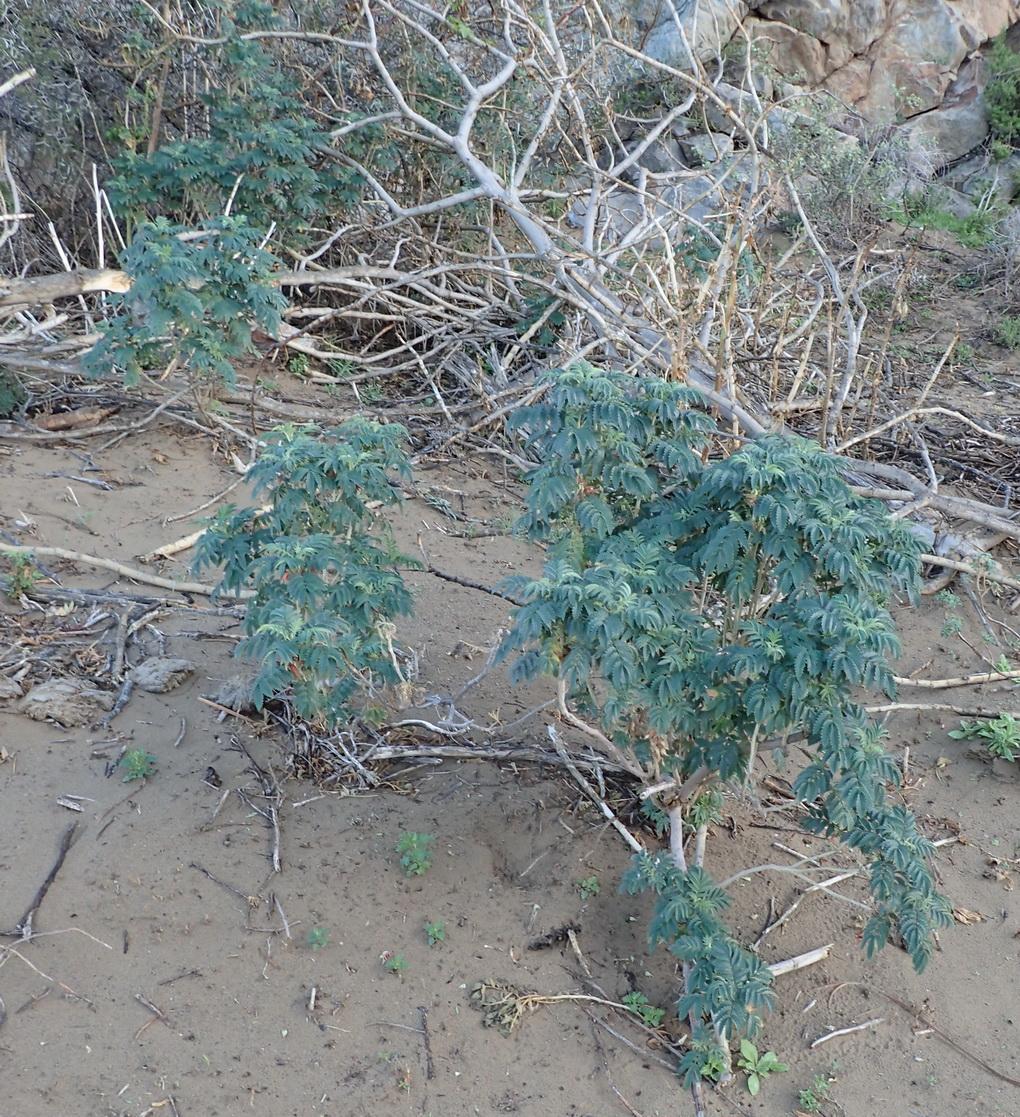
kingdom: Plantae
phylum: Tracheophyta
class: Magnoliopsida
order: Geraniales
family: Melianthaceae
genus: Melianthus
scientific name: Melianthus comosus
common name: Touch-me-not
